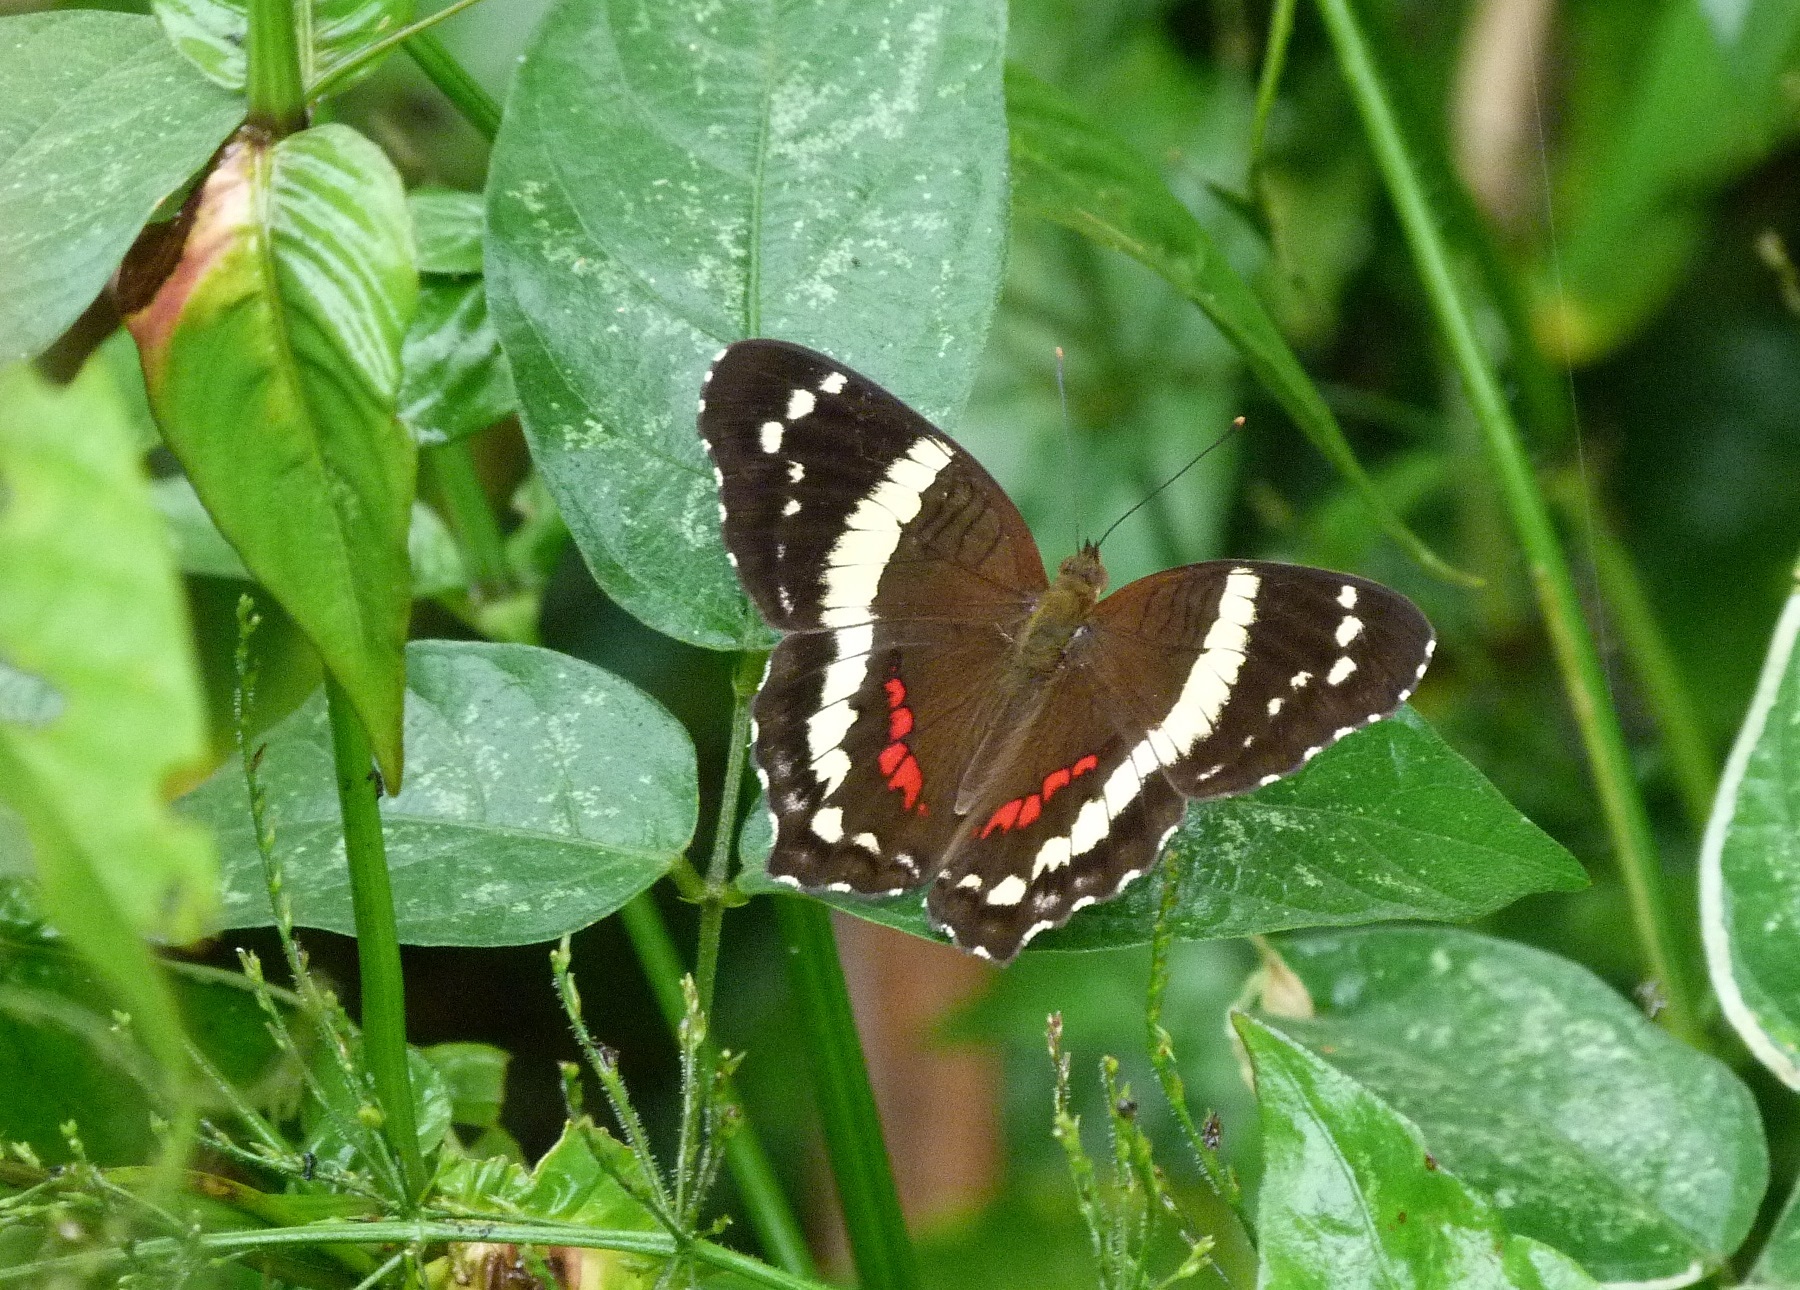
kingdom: Animalia
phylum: Arthropoda
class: Insecta
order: Lepidoptera
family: Nymphalidae
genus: Anartia
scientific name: Anartia fatima
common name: Banded peacock
